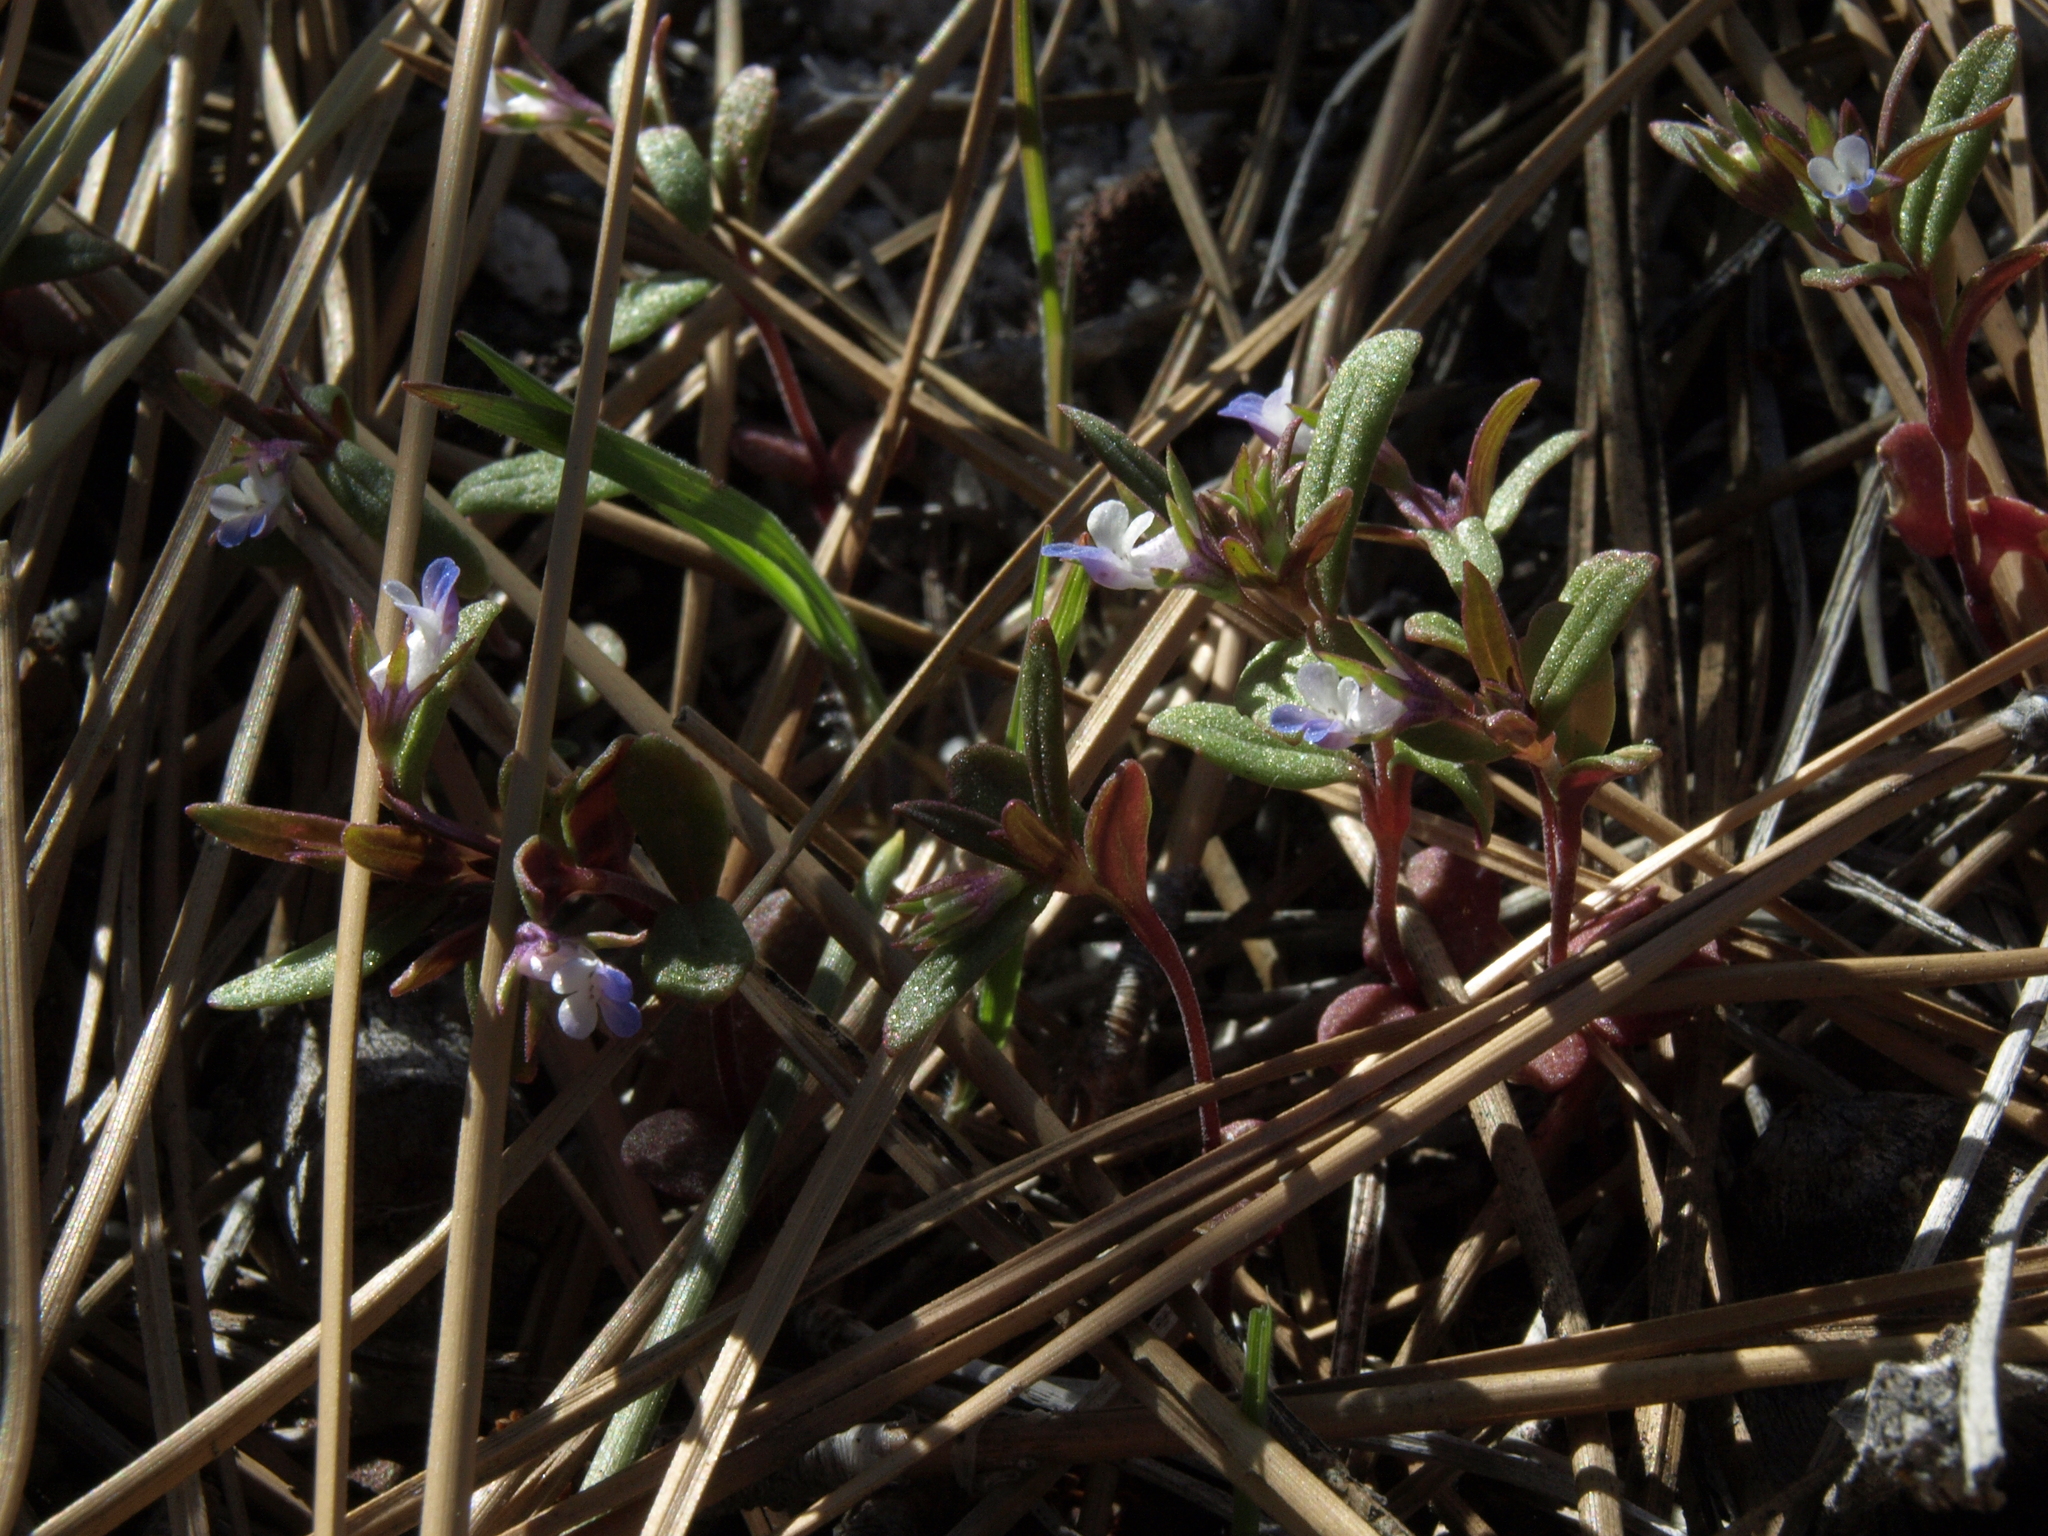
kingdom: Plantae
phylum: Tracheophyta
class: Magnoliopsida
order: Lamiales
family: Plantaginaceae
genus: Collinsia
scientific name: Collinsia parviflora
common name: Blue-lips
